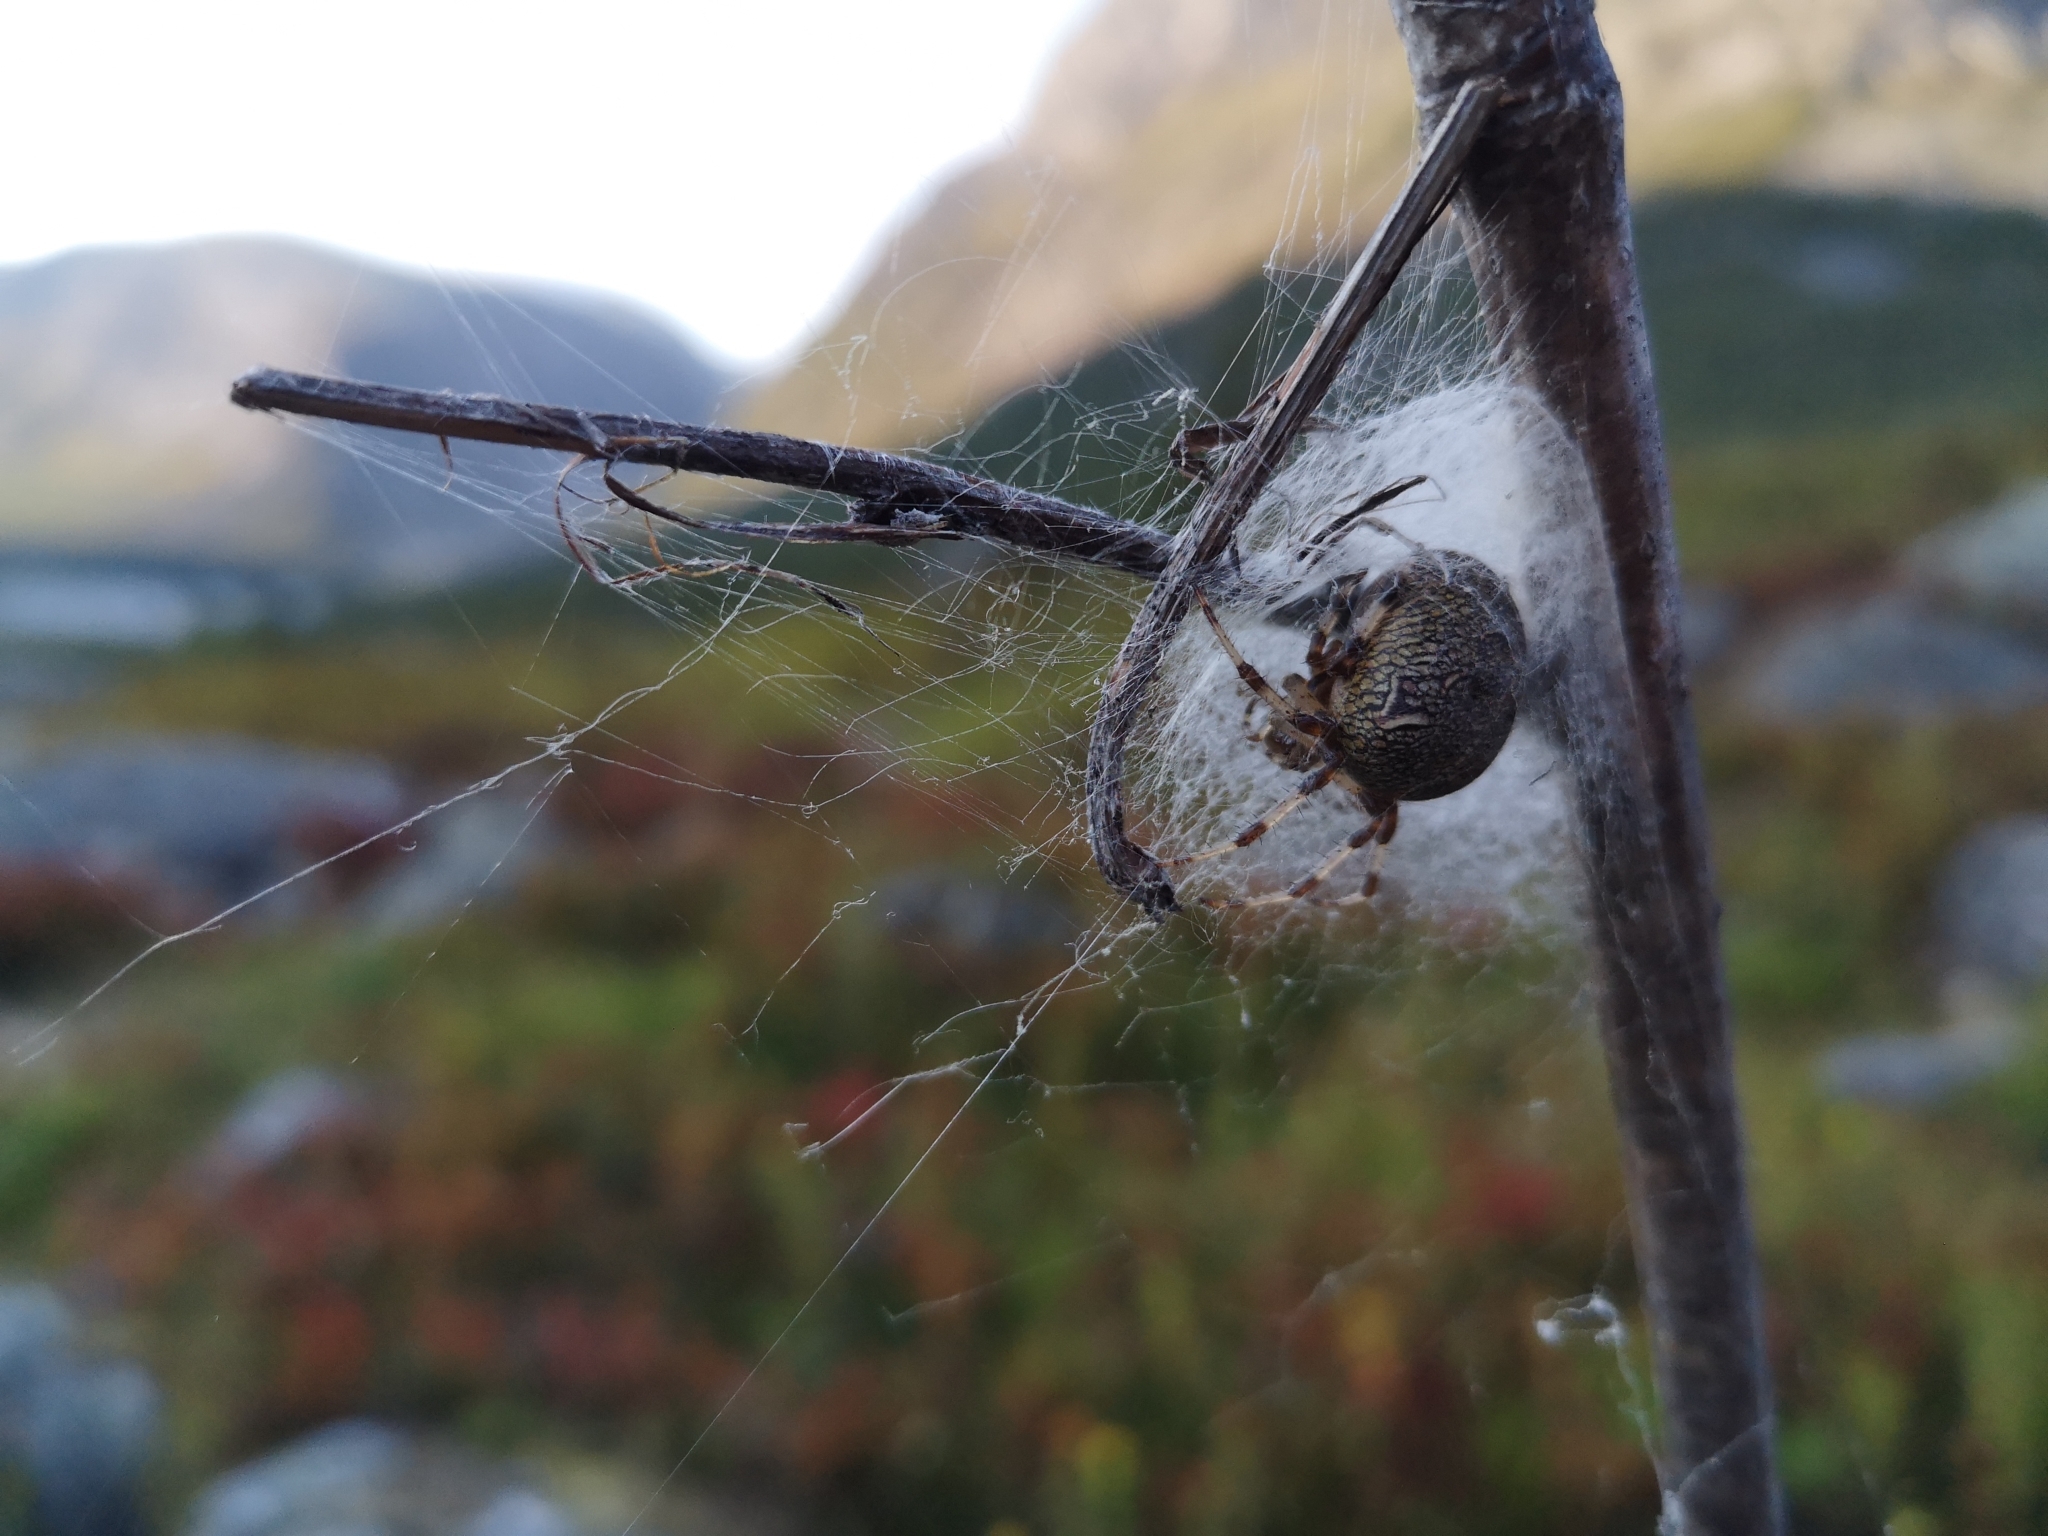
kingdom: Animalia
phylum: Arthropoda
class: Arachnida
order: Araneae
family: Araneidae
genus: Araneus
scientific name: Araneus marmoreus
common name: Marbled orbweaver
